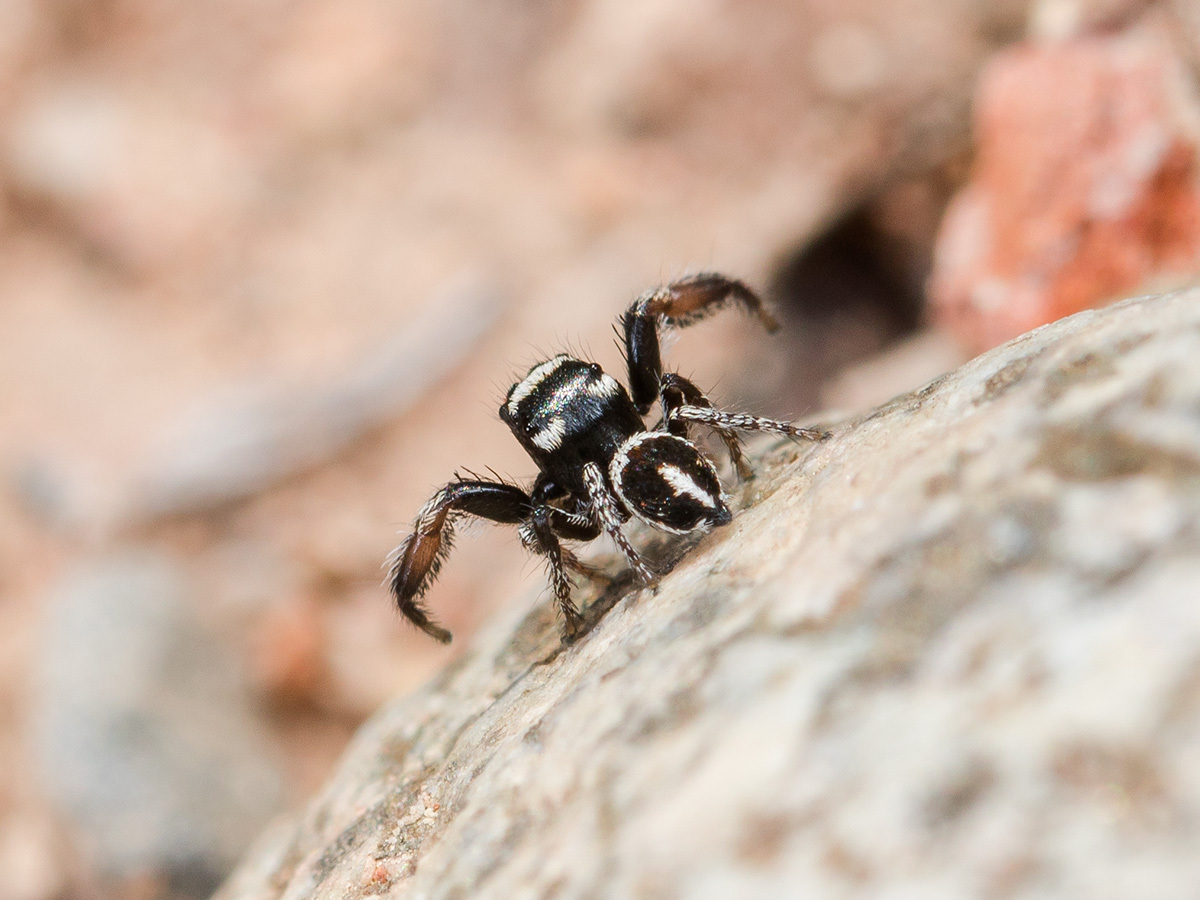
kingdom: Animalia
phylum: Arthropoda
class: Arachnida
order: Araneae
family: Salticidae
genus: Pellenes
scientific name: Pellenes geniculatus
